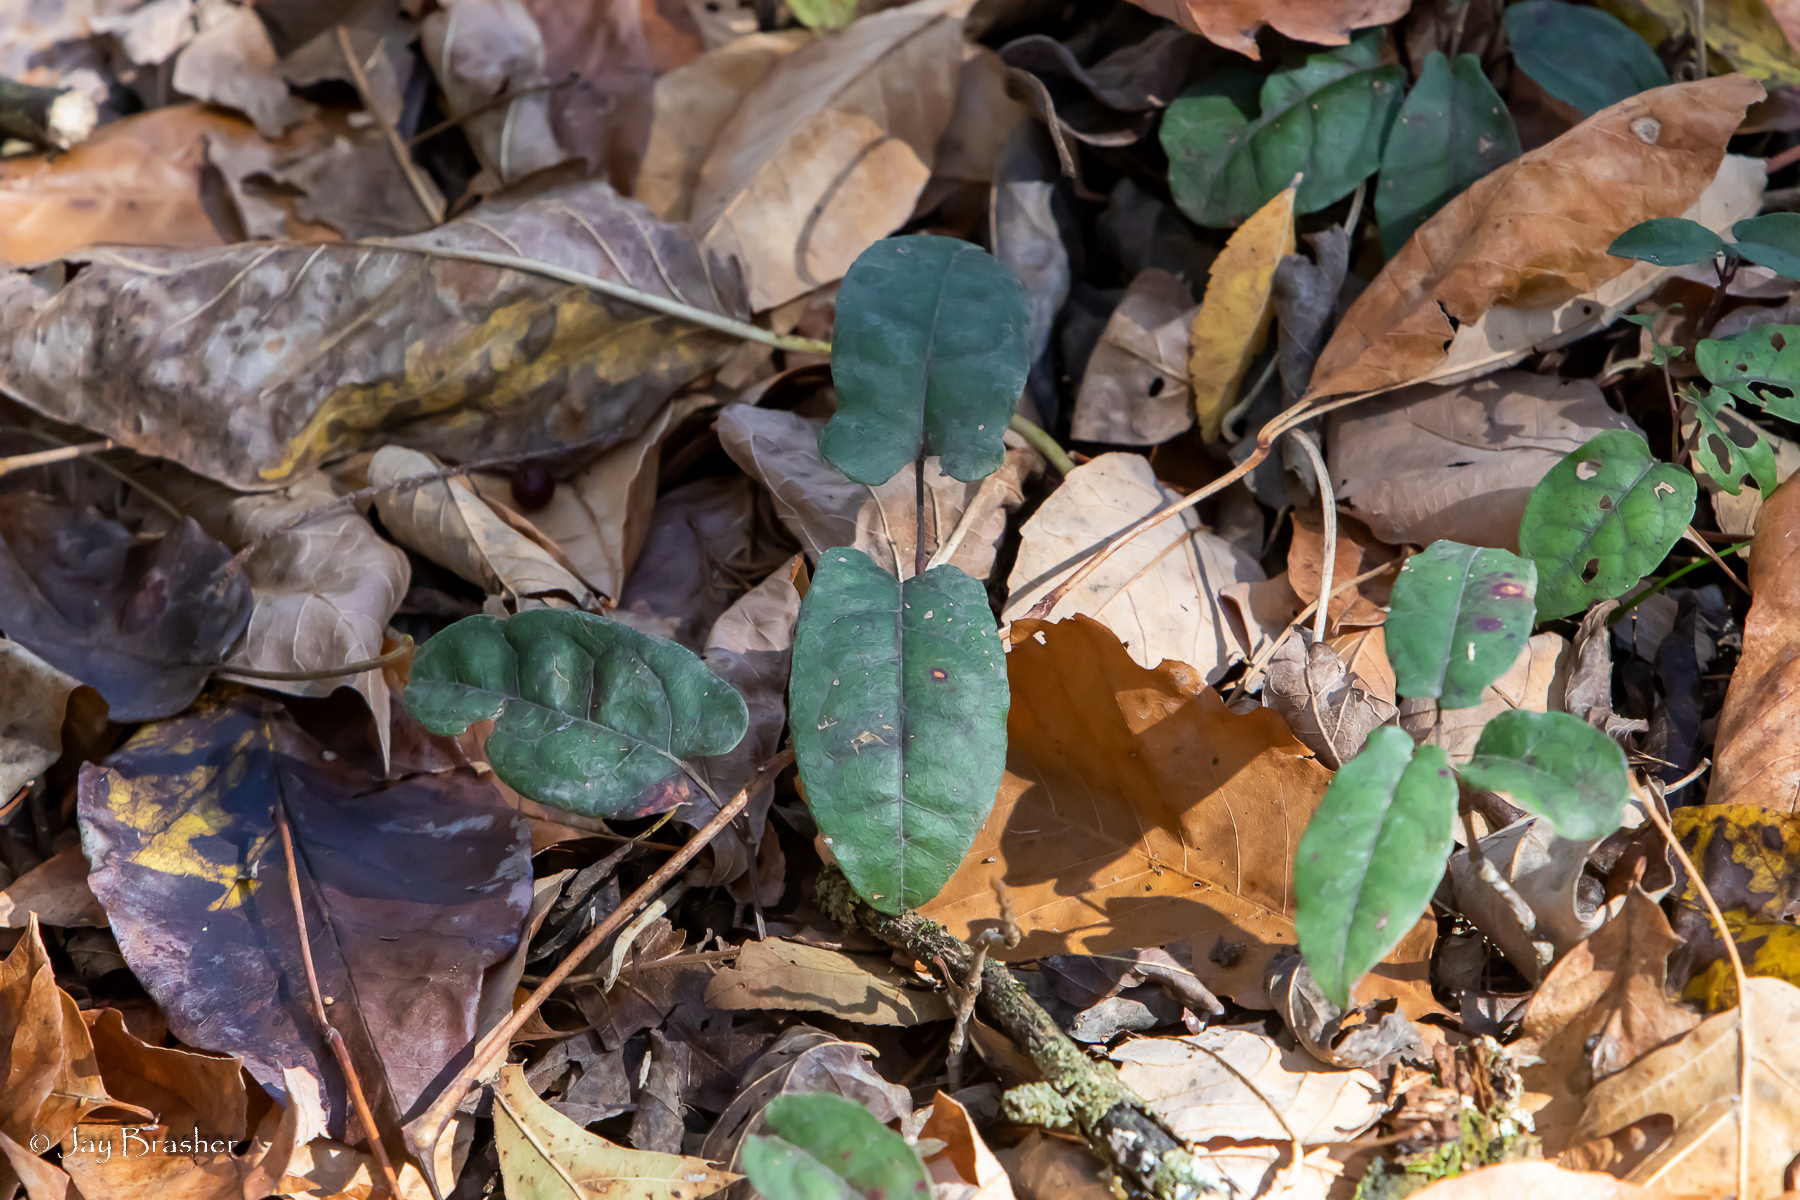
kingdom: Plantae
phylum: Tracheophyta
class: Magnoliopsida
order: Lamiales
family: Bignoniaceae
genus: Bignonia
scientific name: Bignonia capreolata
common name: Crossvine
